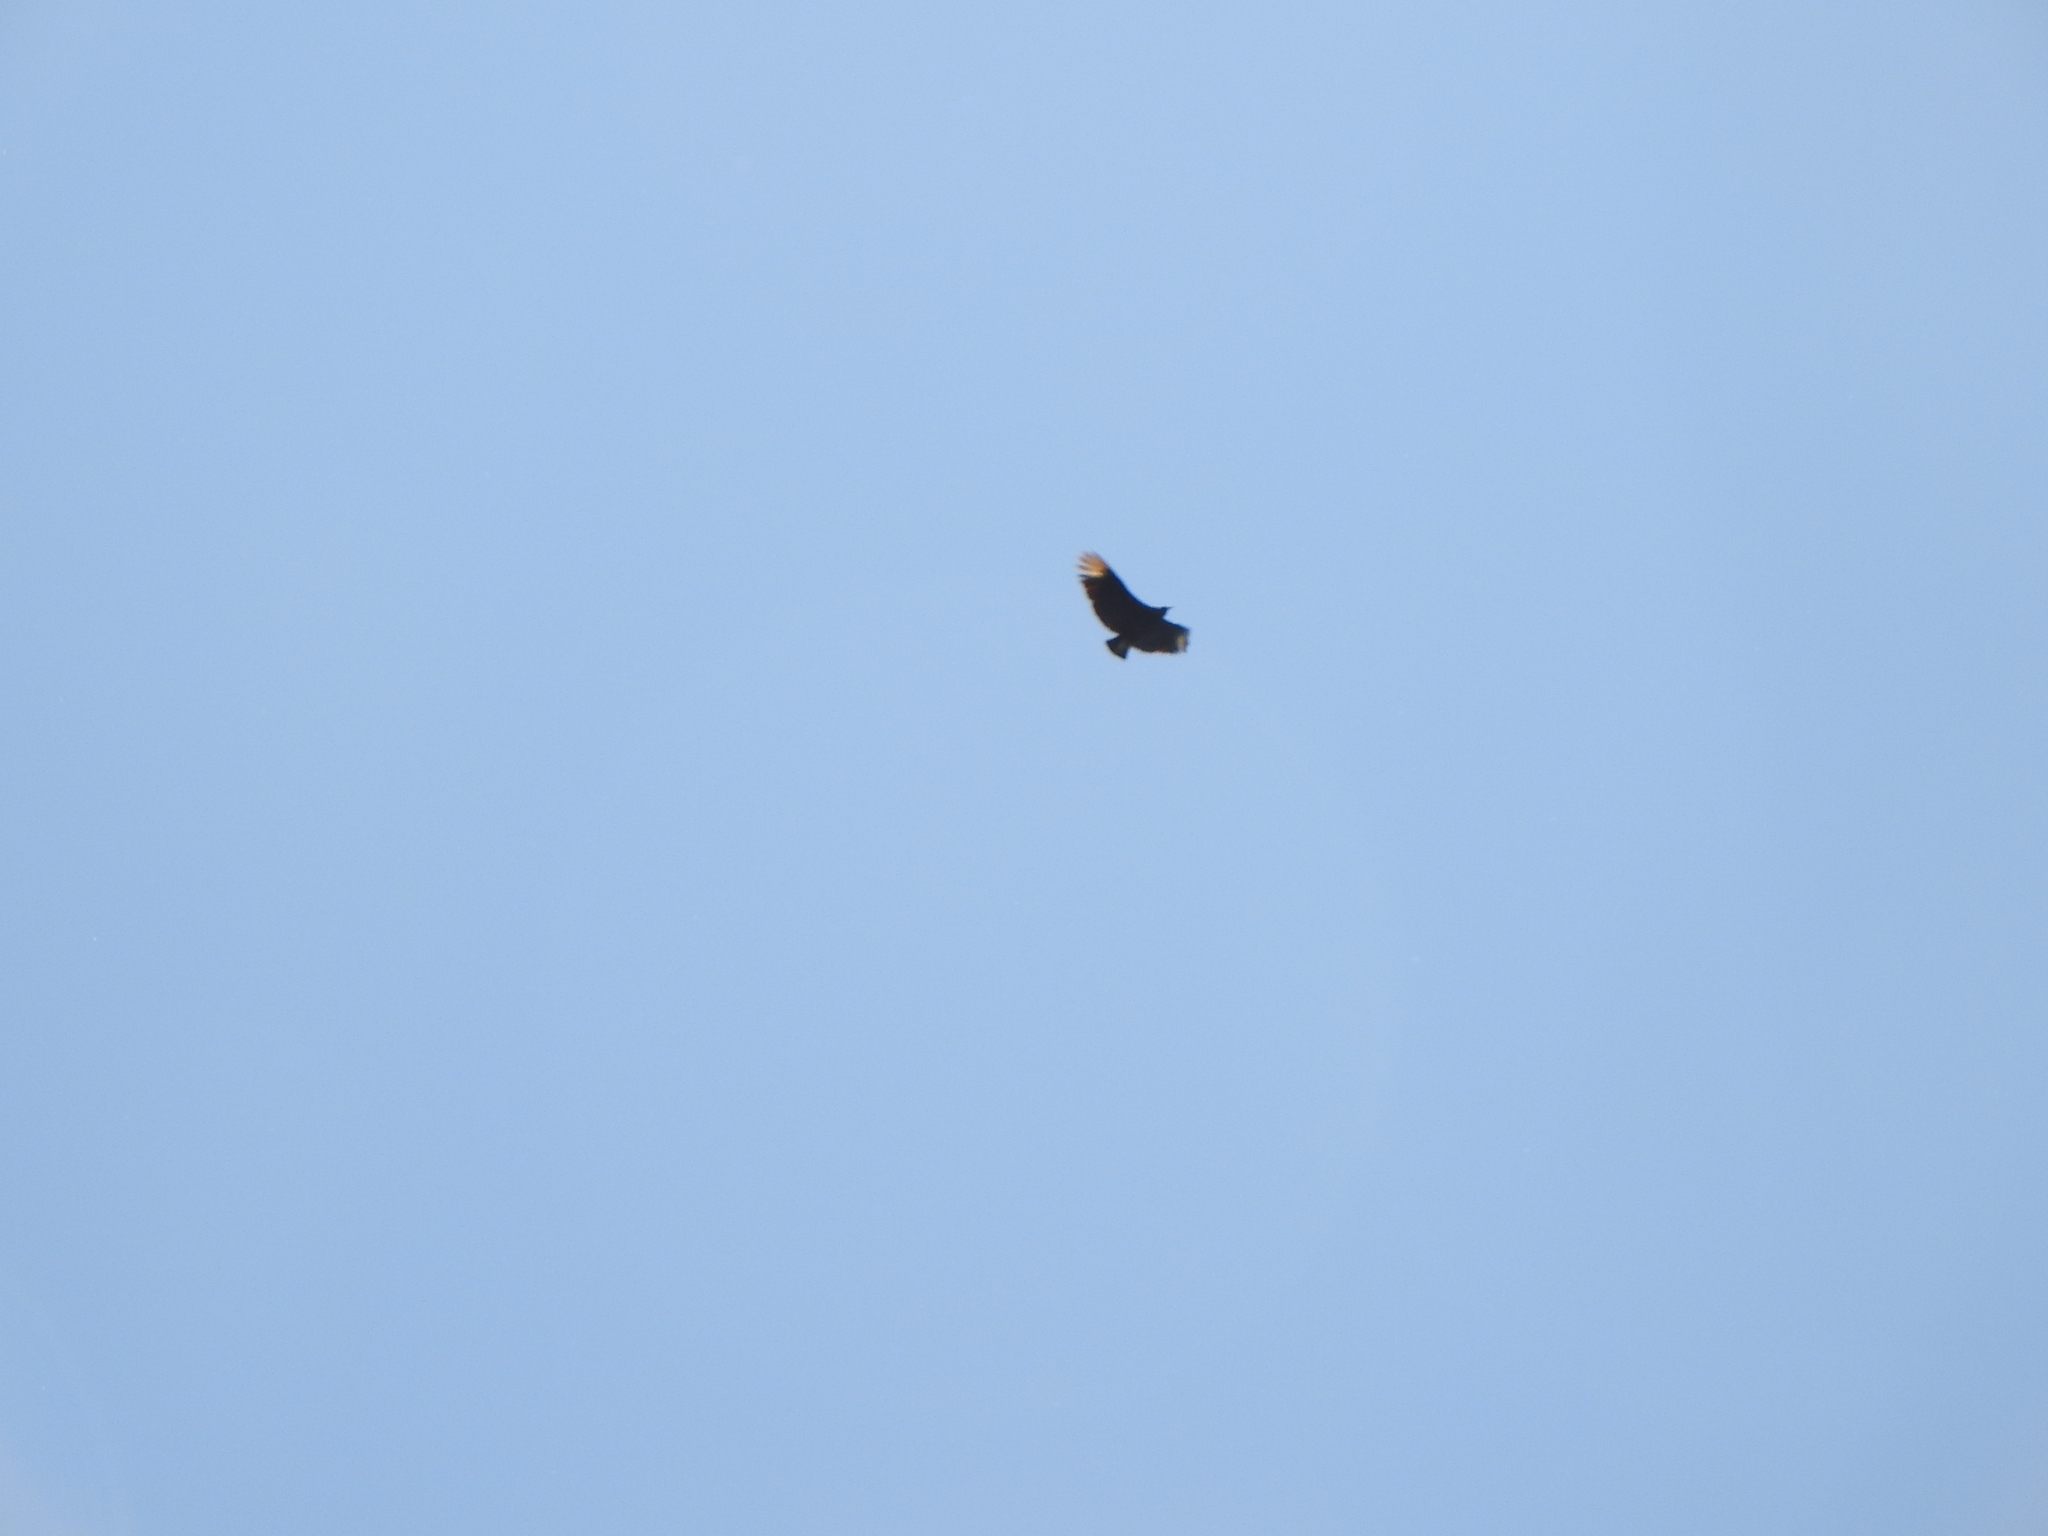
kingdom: Animalia
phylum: Chordata
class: Aves
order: Accipitriformes
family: Cathartidae
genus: Coragyps
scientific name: Coragyps atratus
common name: Black vulture
